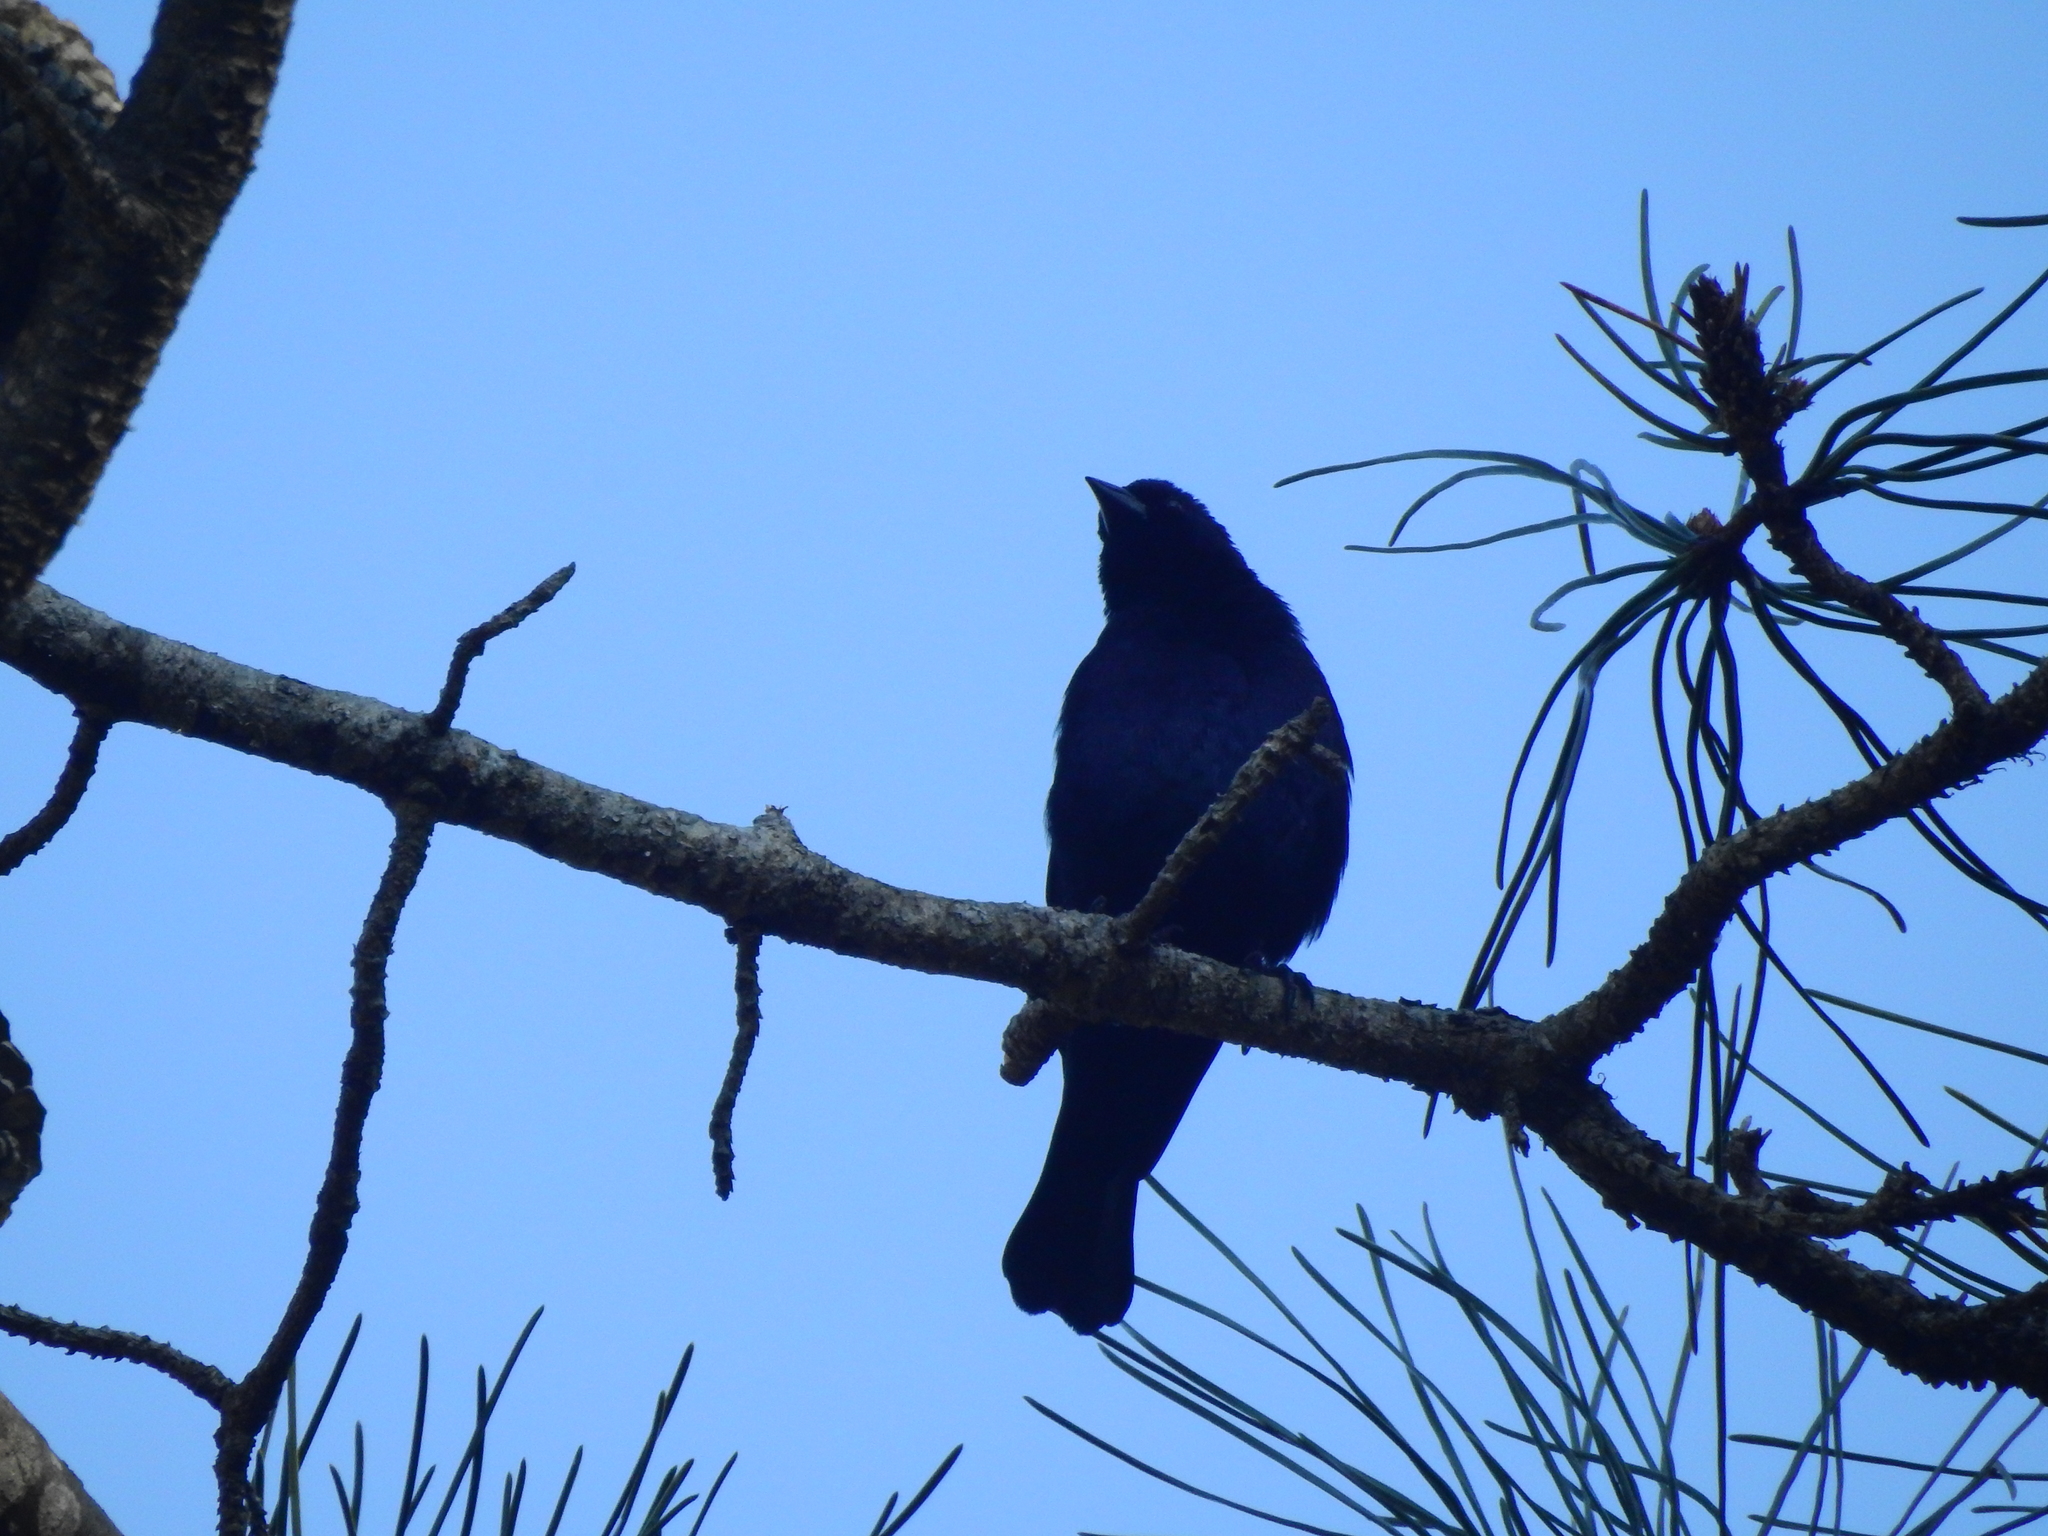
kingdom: Animalia
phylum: Chordata
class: Aves
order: Passeriformes
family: Icteridae
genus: Molothrus
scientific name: Molothrus bonariensis
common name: Shiny cowbird
